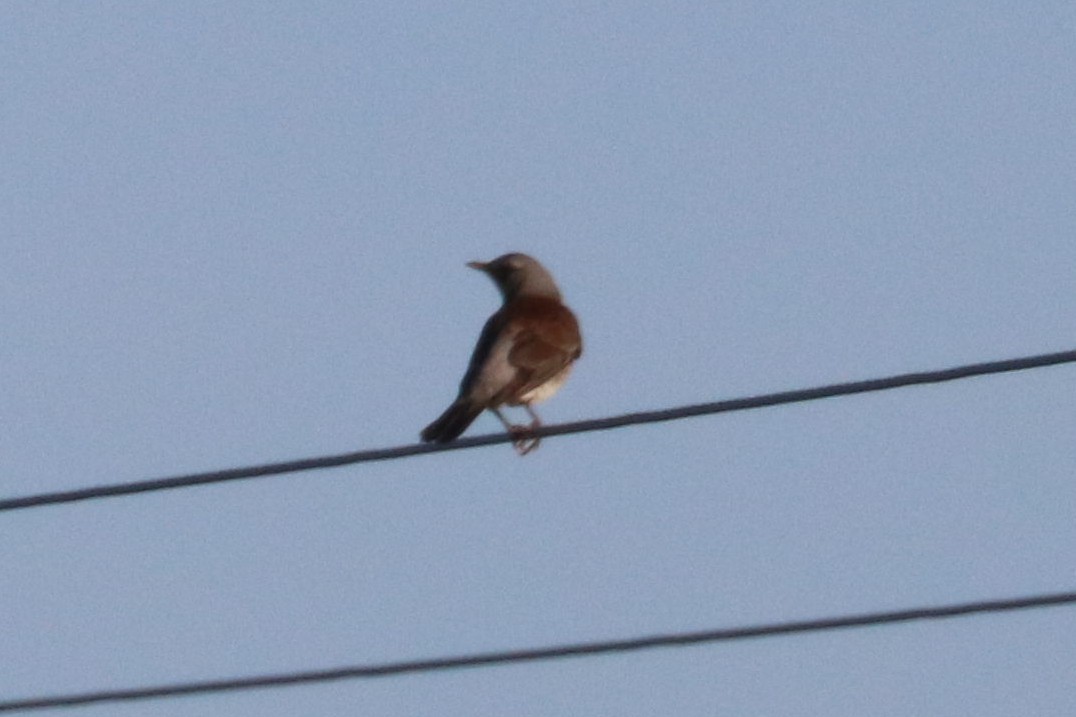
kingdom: Animalia
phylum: Chordata
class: Aves
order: Passeriformes
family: Turdidae
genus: Turdus
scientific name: Turdus pilaris
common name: Fieldfare
